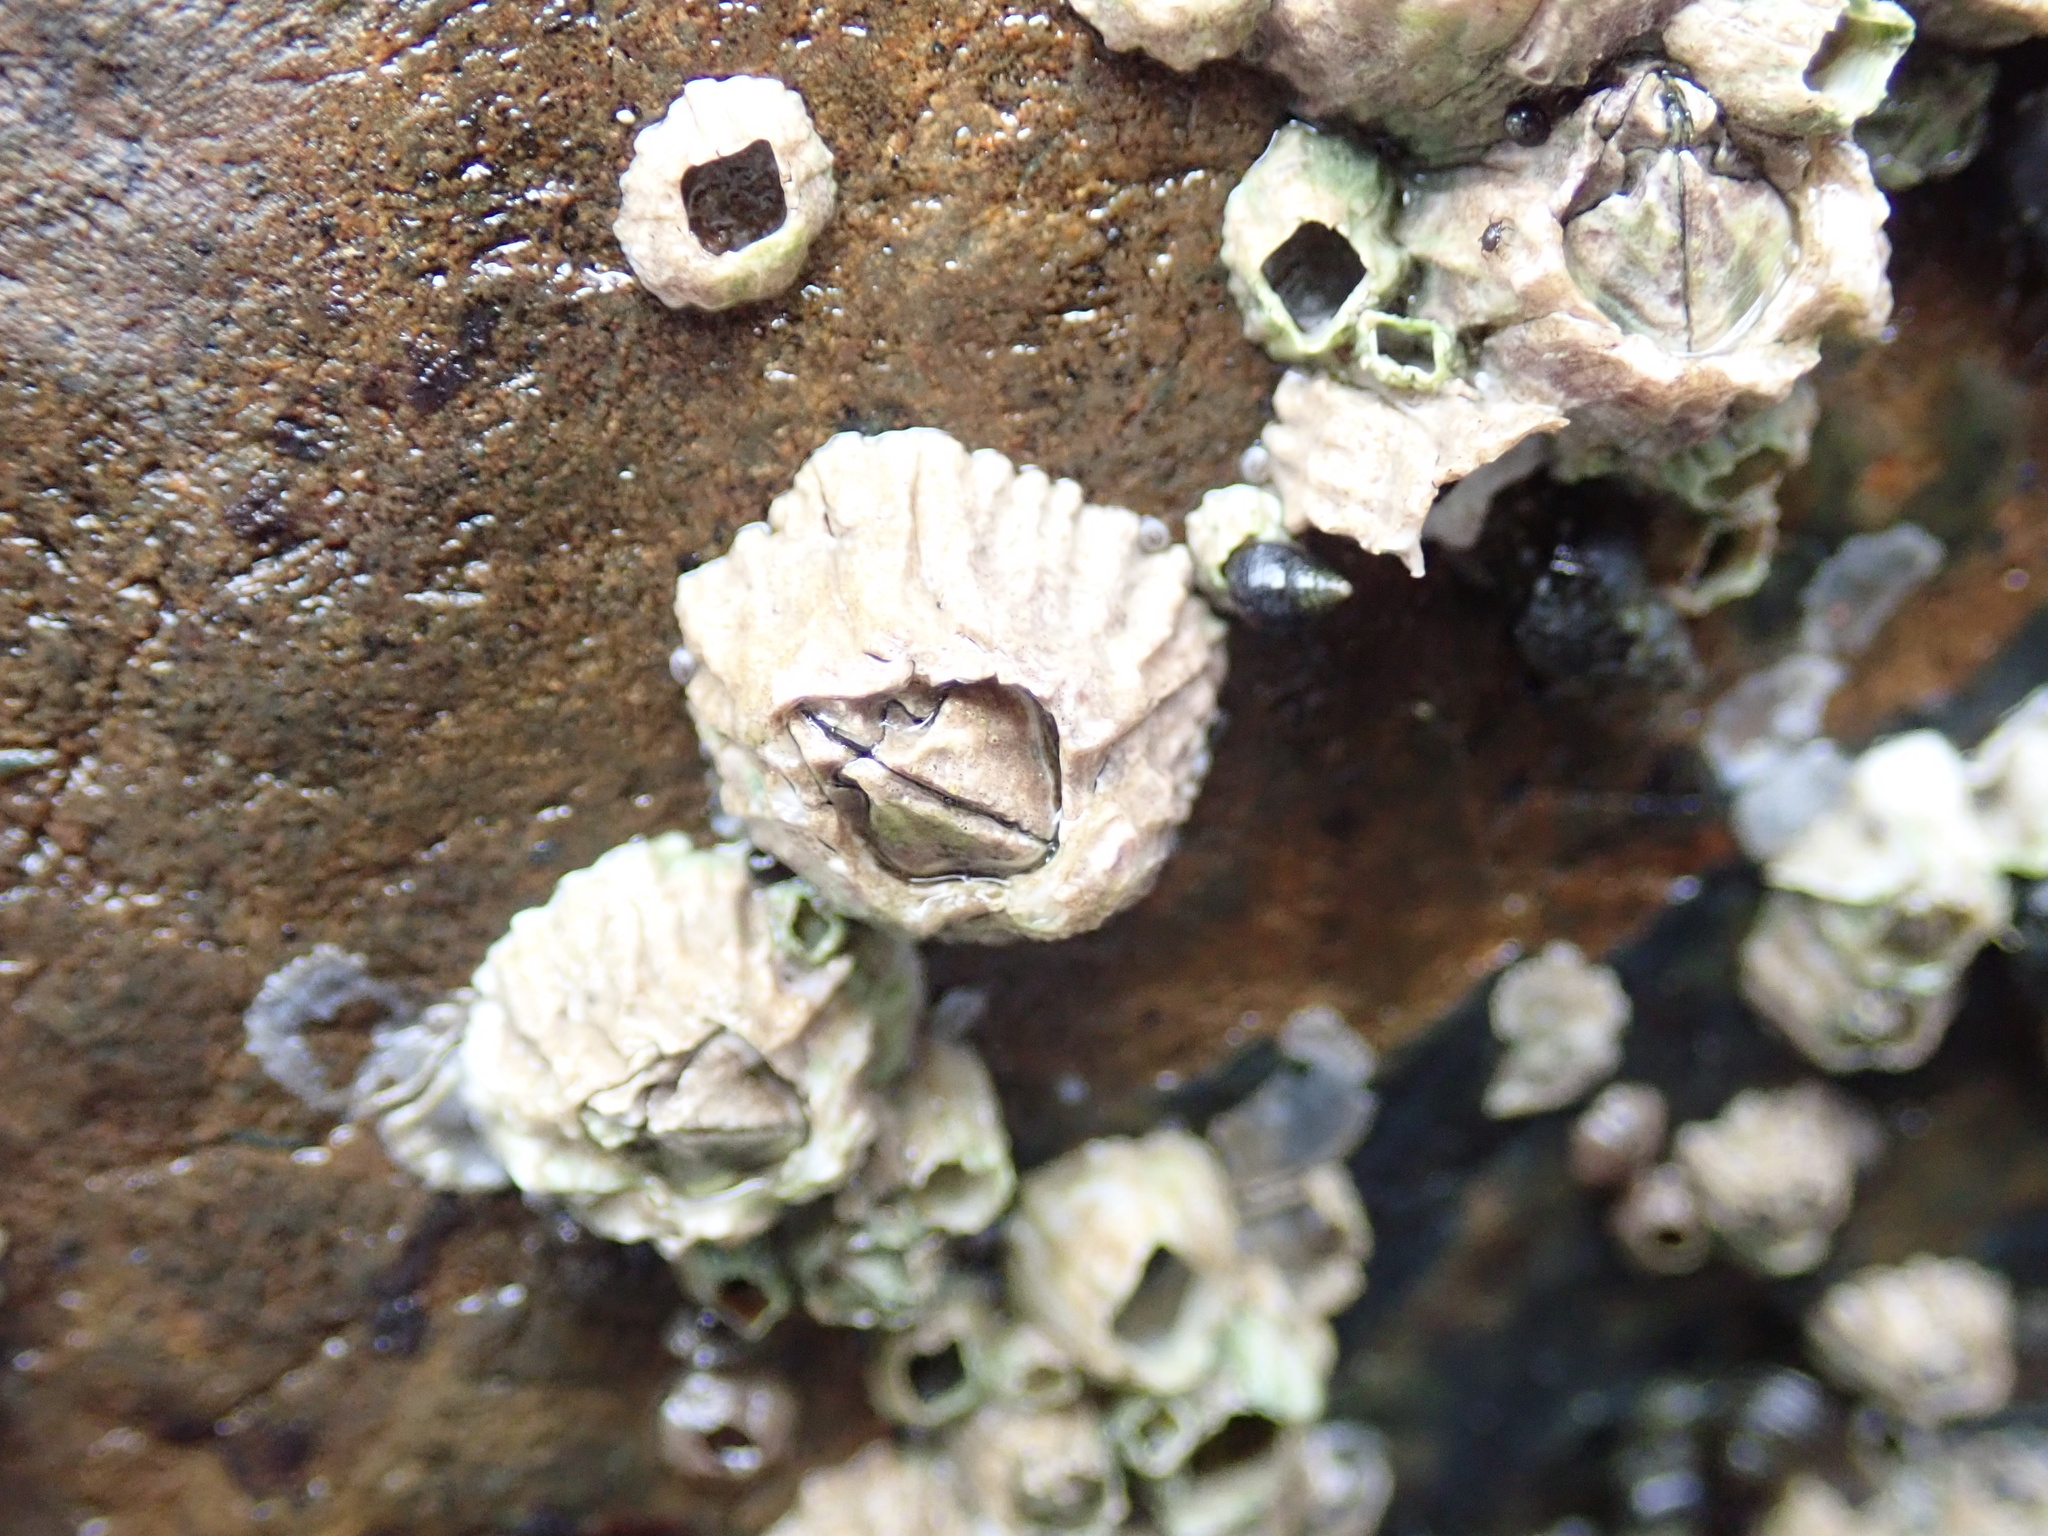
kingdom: Animalia
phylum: Arthropoda
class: Maxillopoda
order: Sessilia
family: Balanidae
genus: Balanus
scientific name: Balanus glandula
